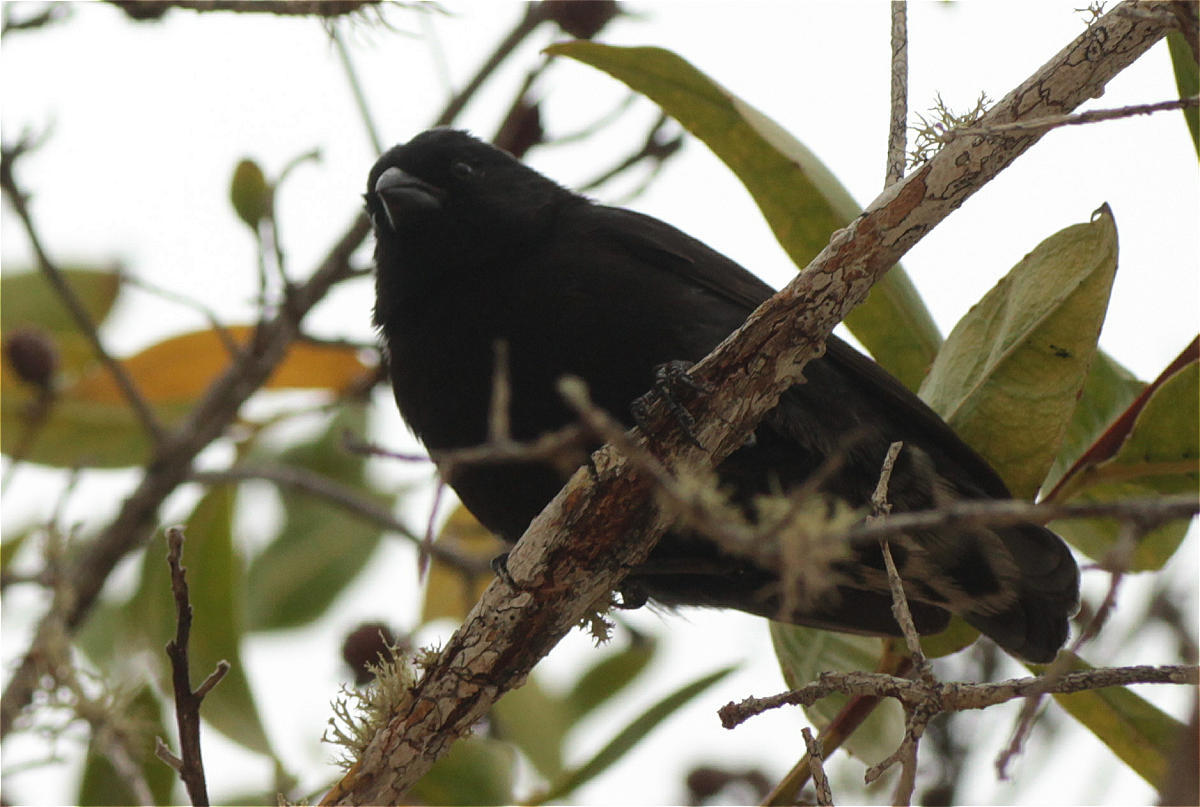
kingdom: Animalia
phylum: Chordata
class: Aves
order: Passeriformes
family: Thraupidae
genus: Geospiza
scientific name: Geospiza fuliginosa
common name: Small ground finch
